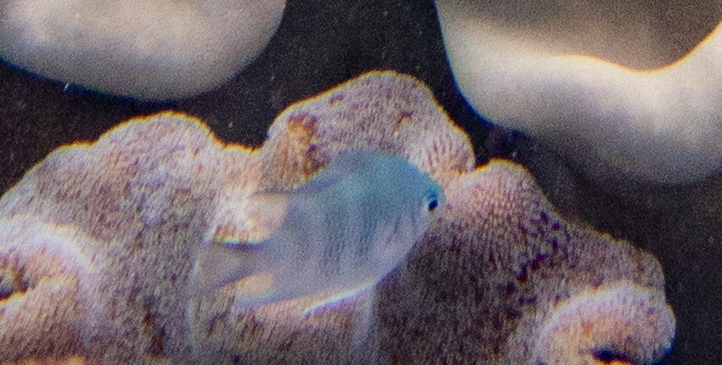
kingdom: Animalia
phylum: Chordata
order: Perciformes
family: Pomacentridae
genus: Amblyglyphidodon
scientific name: Amblyglyphidodon curacao
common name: Staghorn damsel
